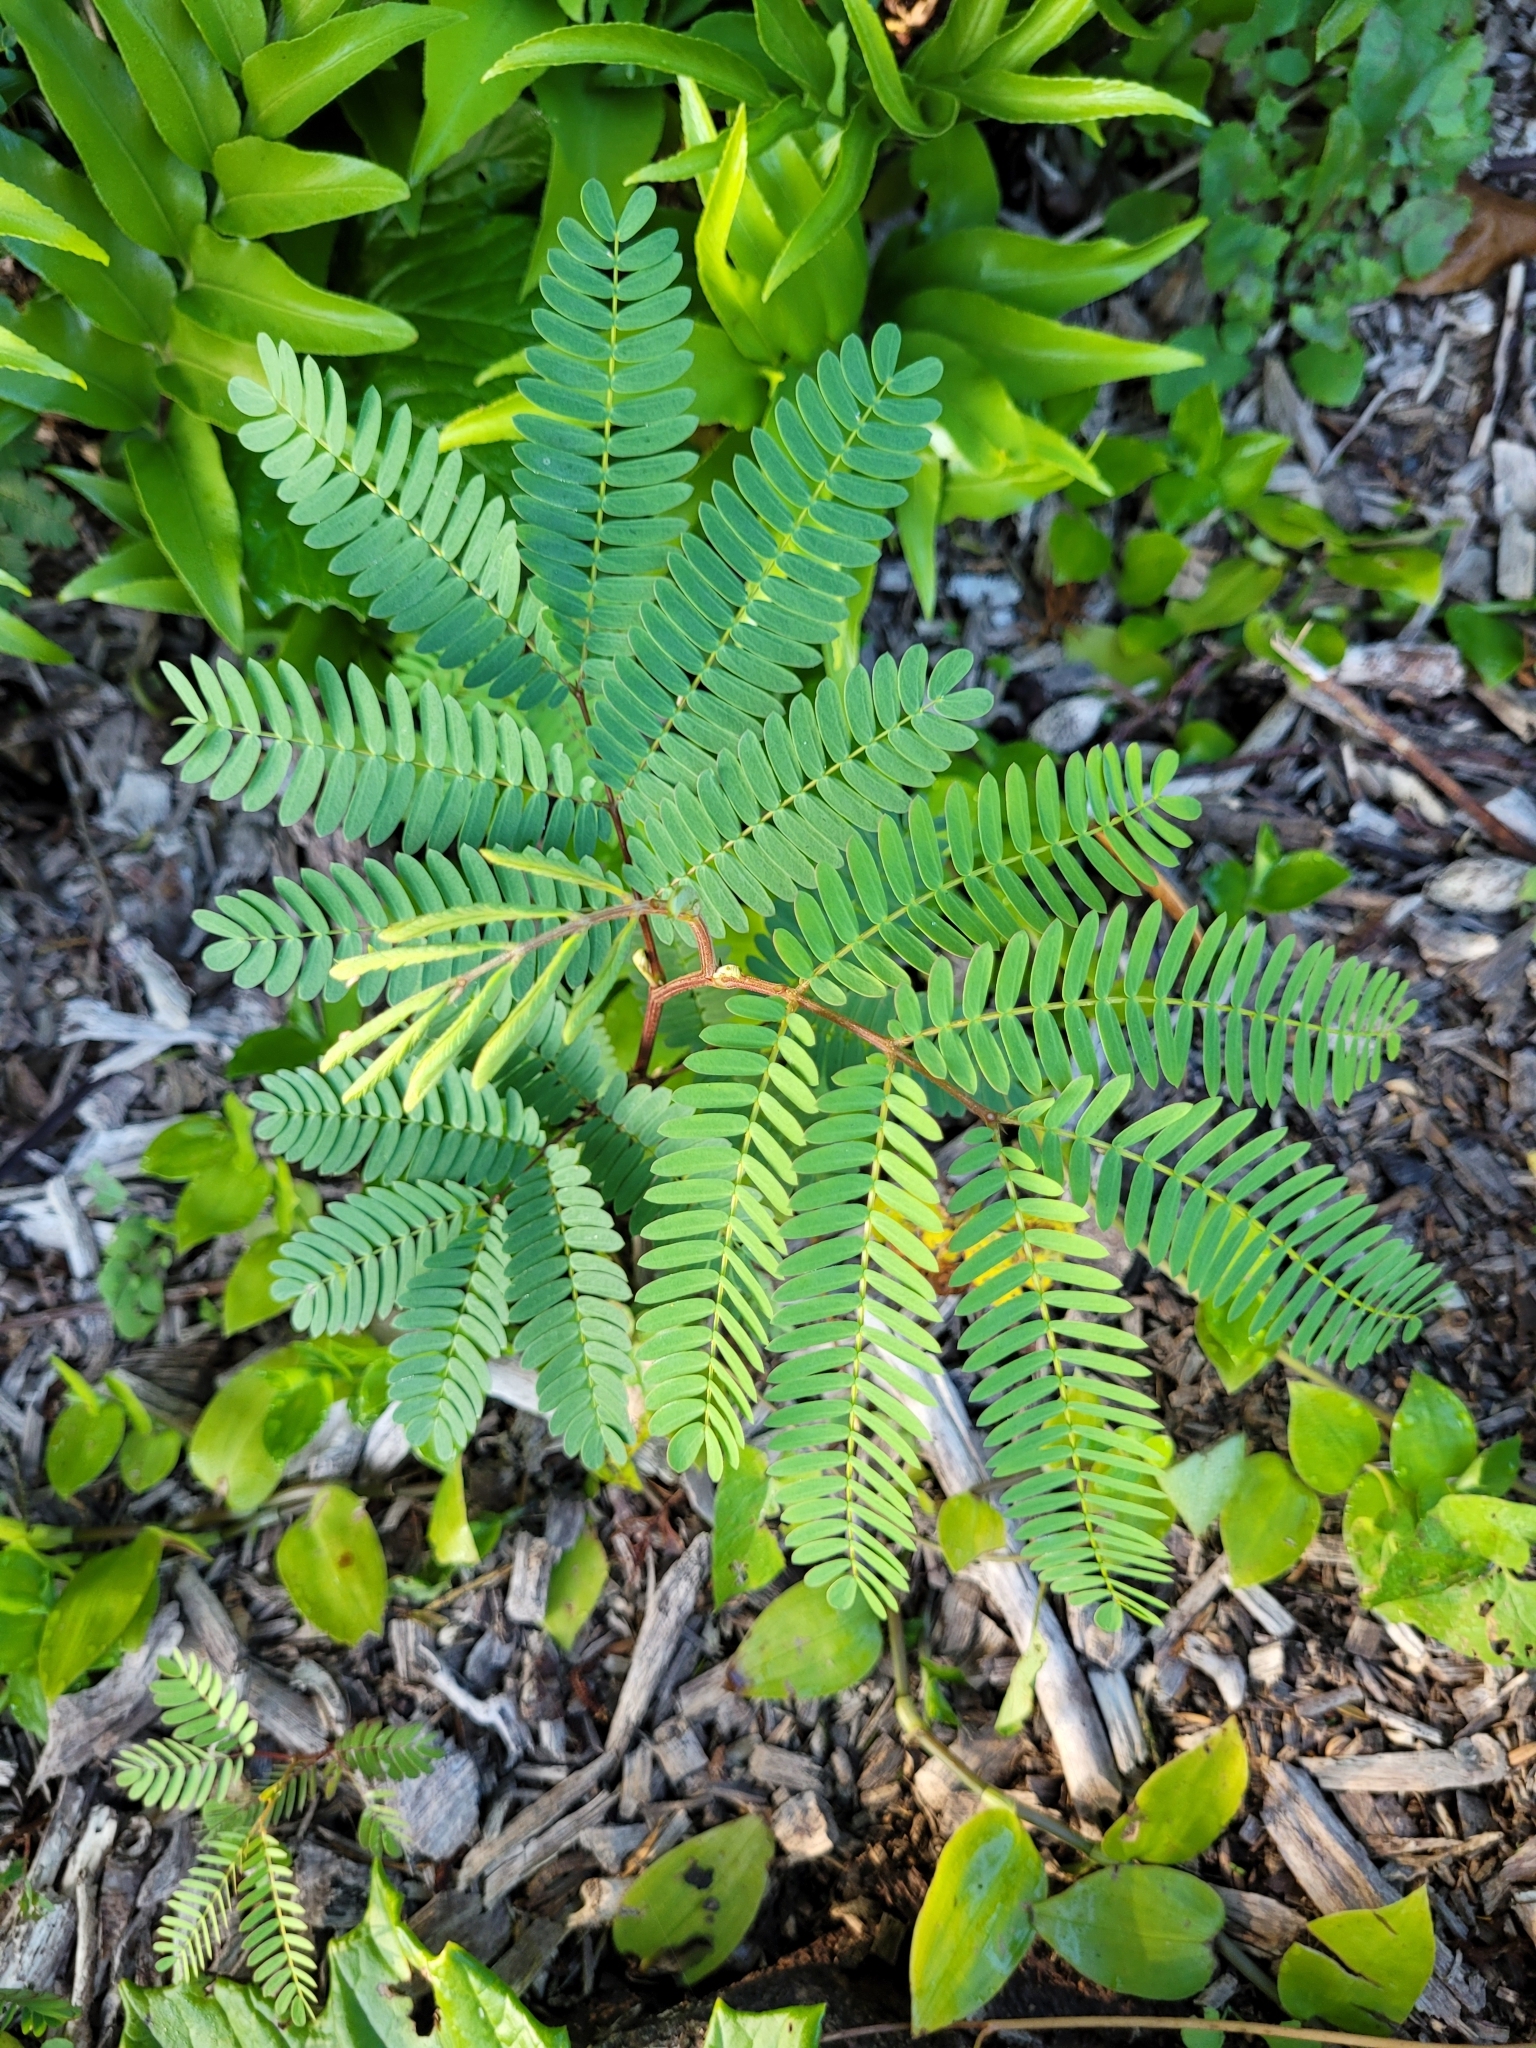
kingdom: Plantae
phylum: Tracheophyta
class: Magnoliopsida
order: Fabales
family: Fabaceae
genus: Paraserianthes
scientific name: Paraserianthes lophantha
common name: Plume albizia
